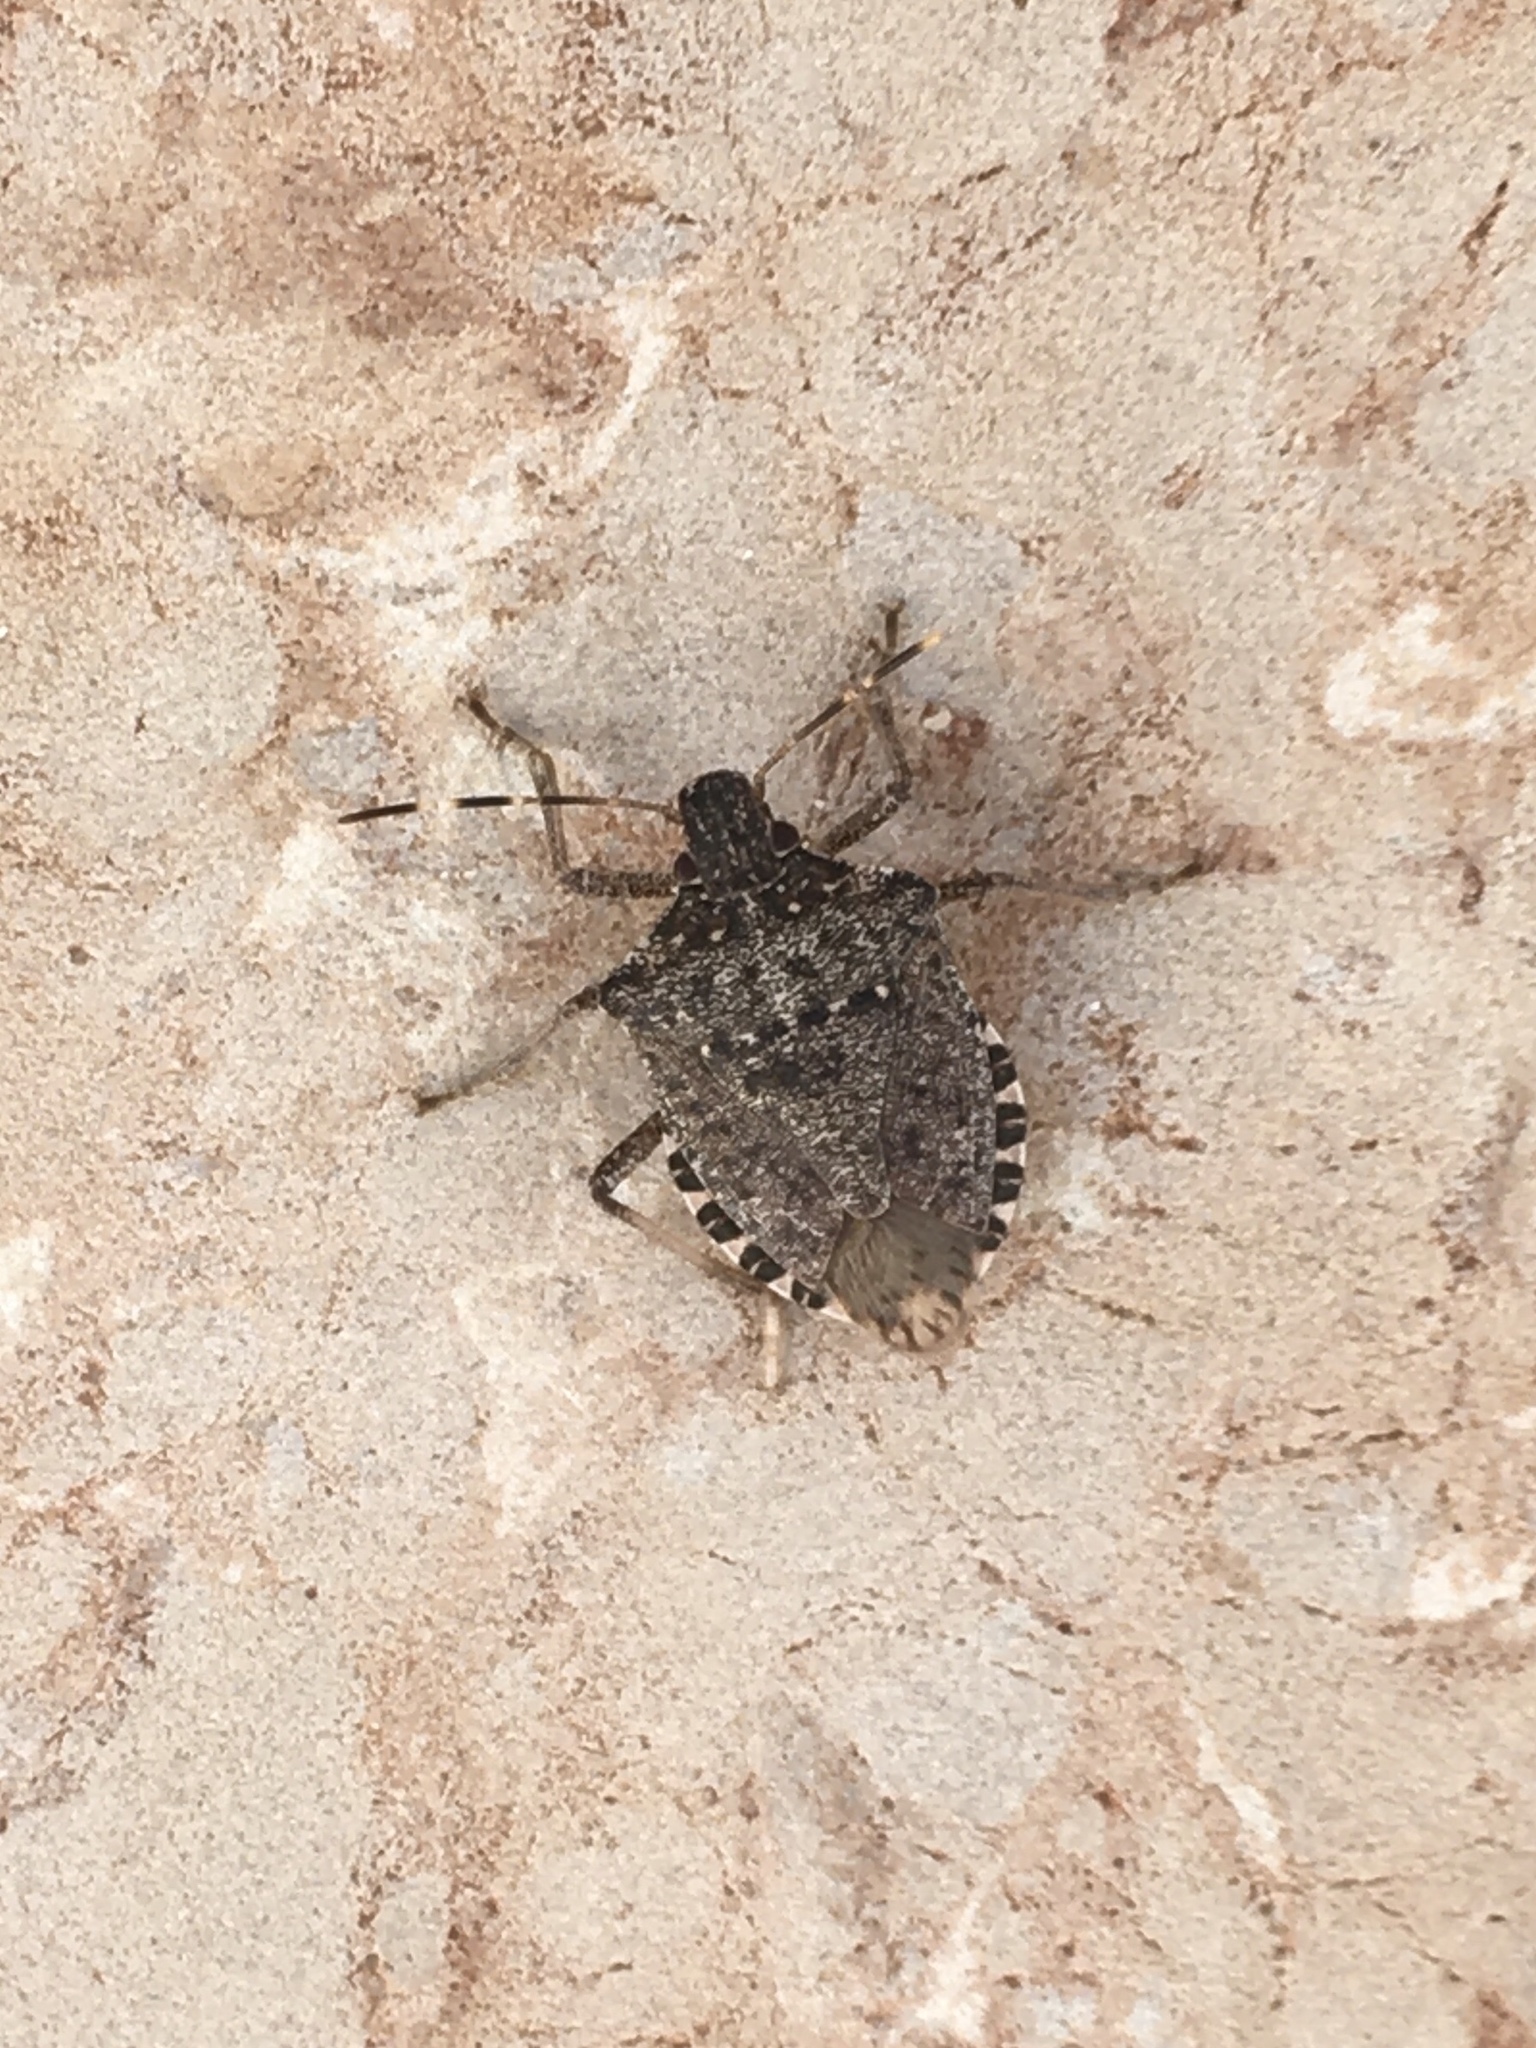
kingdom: Animalia
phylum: Arthropoda
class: Insecta
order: Hemiptera
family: Pentatomidae
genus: Halyomorpha
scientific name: Halyomorpha halys
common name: Brown marmorated stink bug
